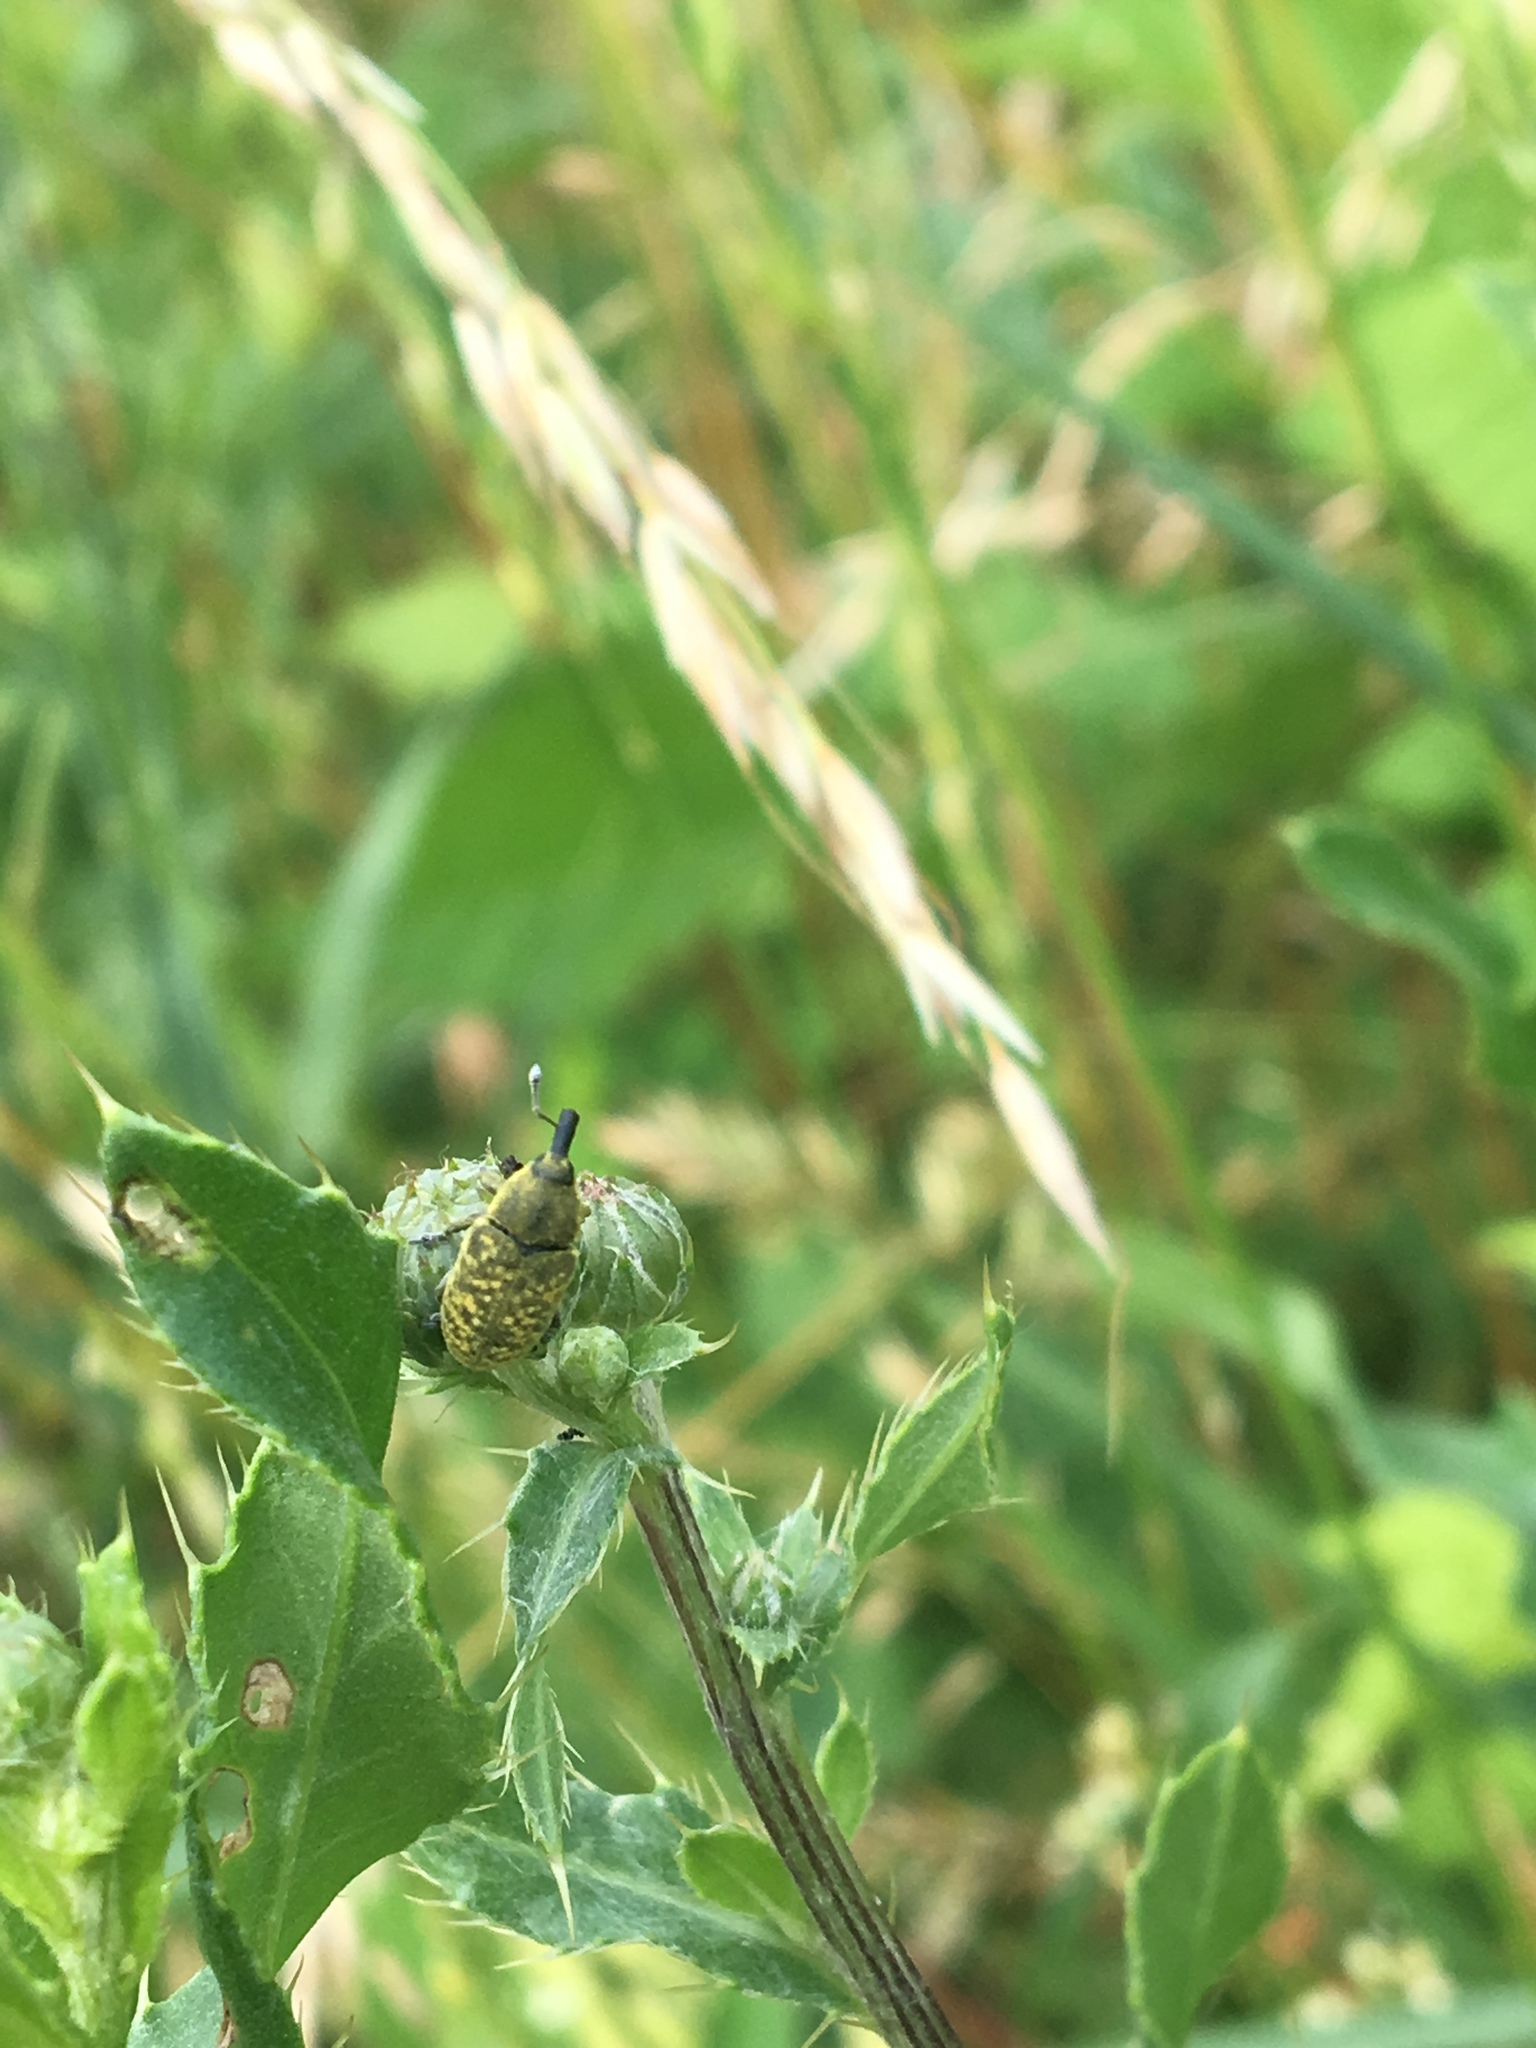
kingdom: Animalia
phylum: Arthropoda
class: Insecta
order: Coleoptera
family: Curculionidae
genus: Larinus
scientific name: Larinus carlinae
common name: Weevil
